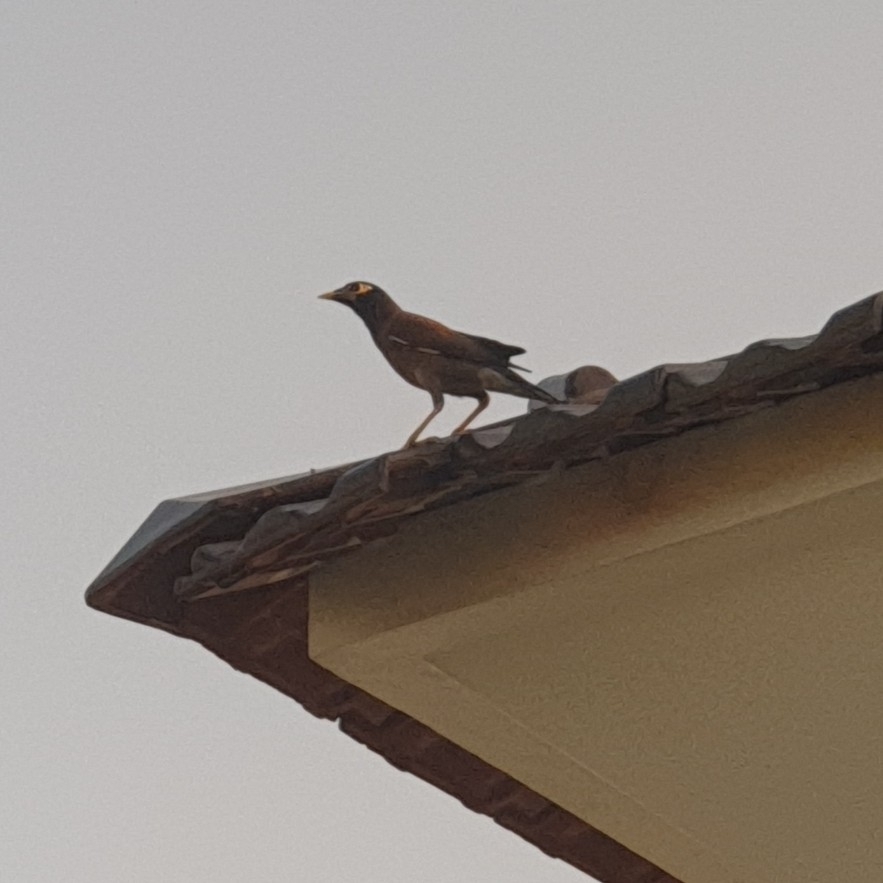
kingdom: Animalia
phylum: Chordata
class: Aves
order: Passeriformes
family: Sturnidae
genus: Acridotheres
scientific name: Acridotheres tristis
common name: Common myna
